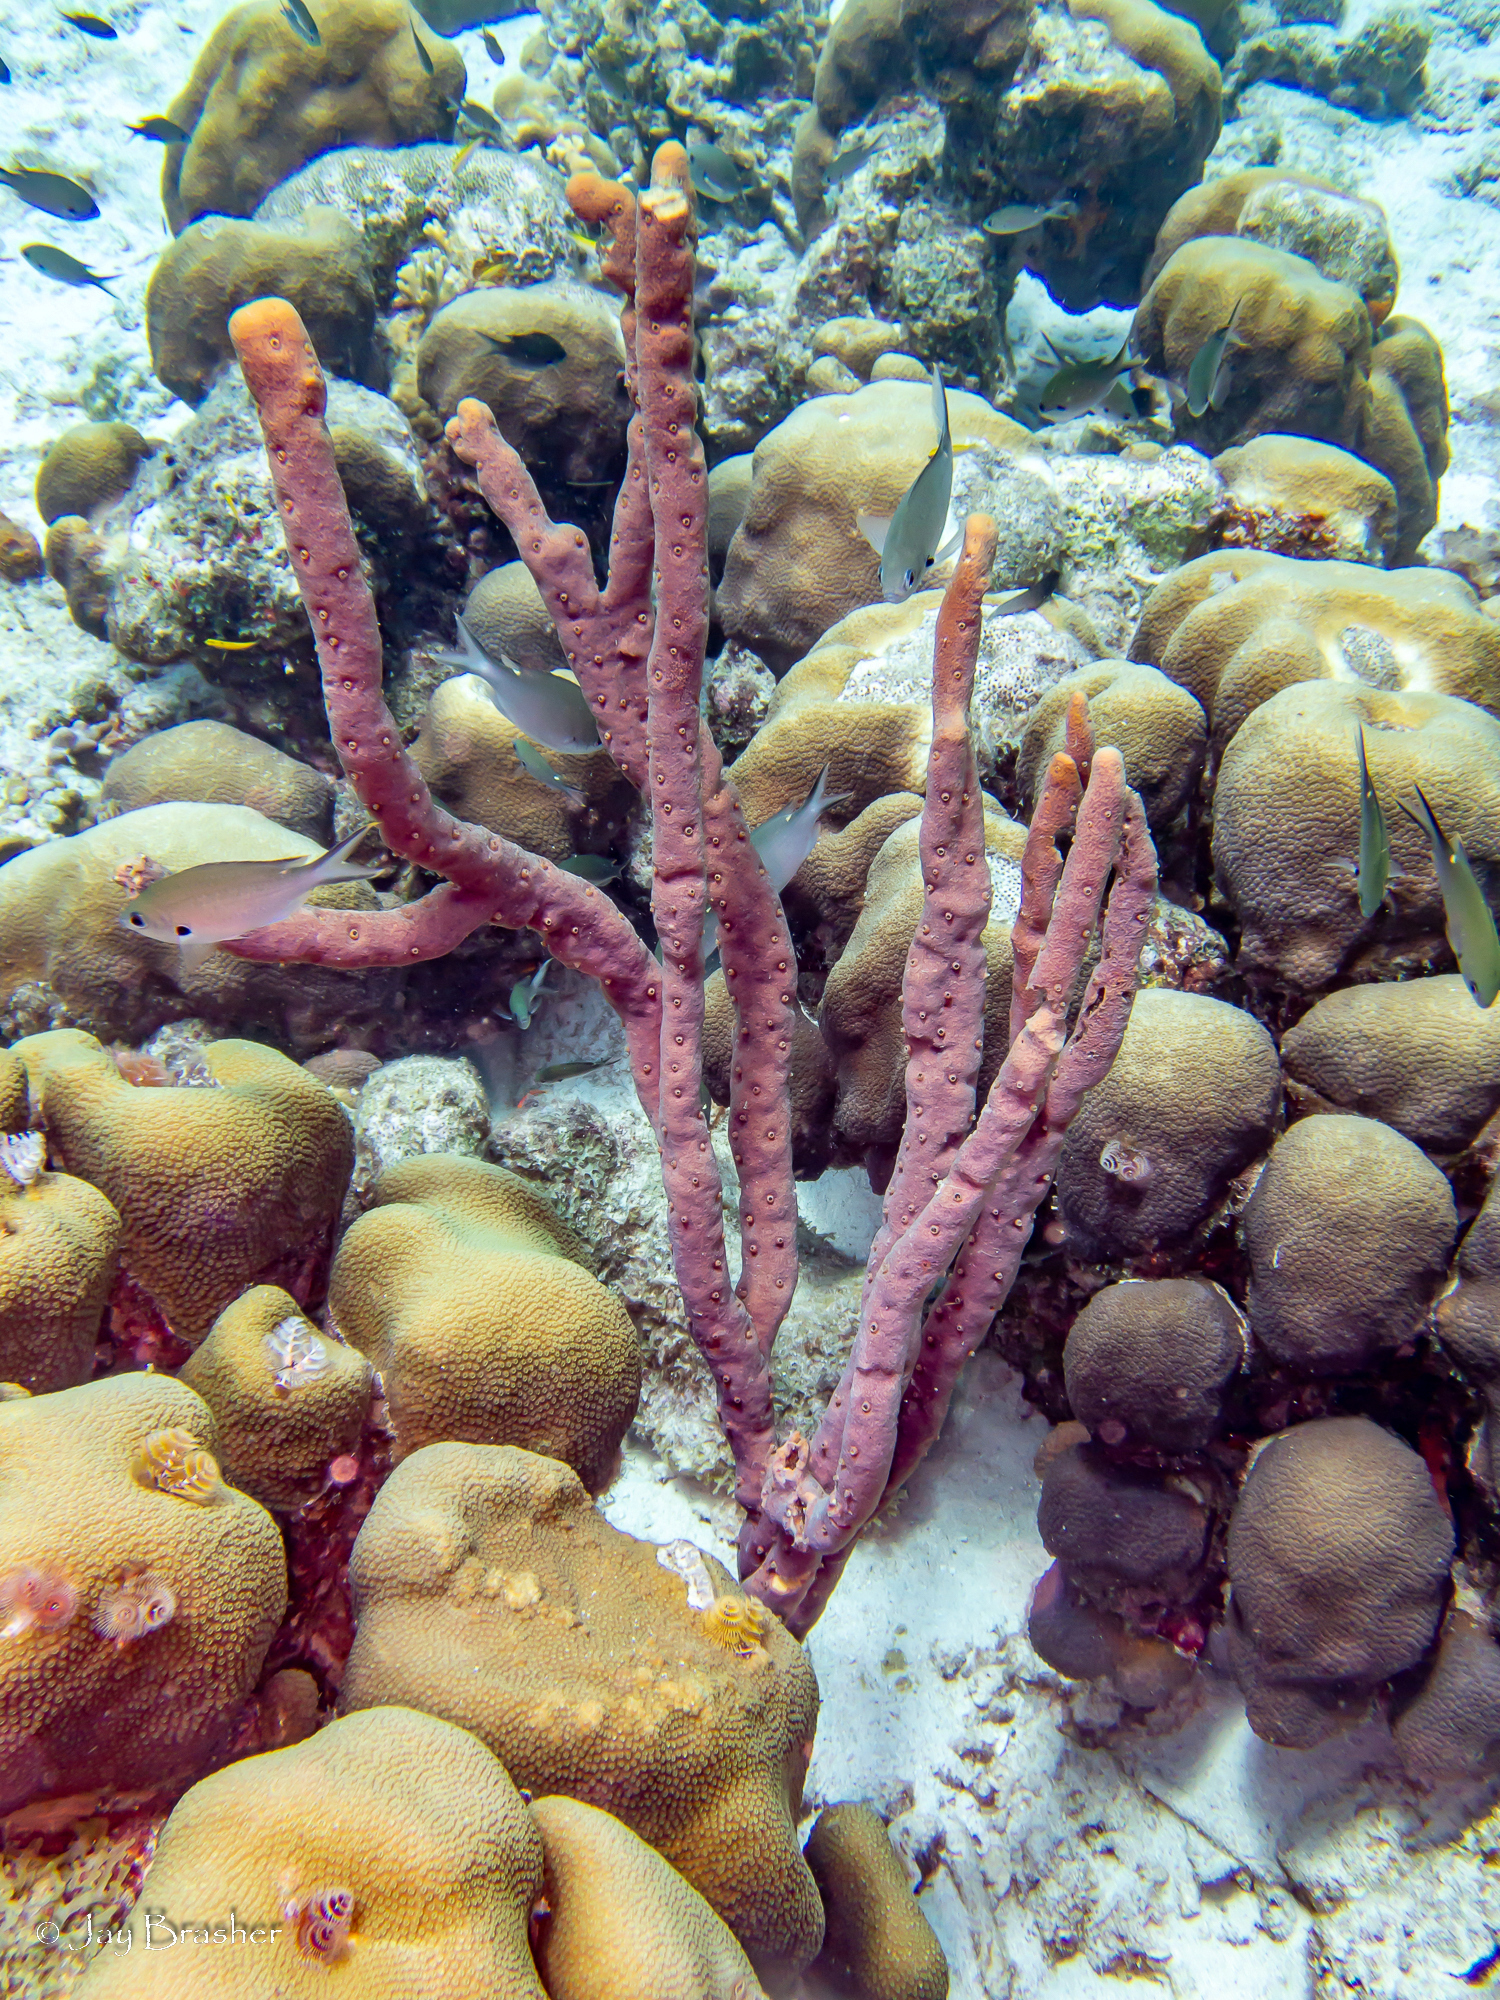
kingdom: Animalia
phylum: Cnidaria
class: Anthozoa
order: Scleractinia
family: Merulinidae
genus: Orbicella
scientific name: Orbicella annularis
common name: Boulder star coral
